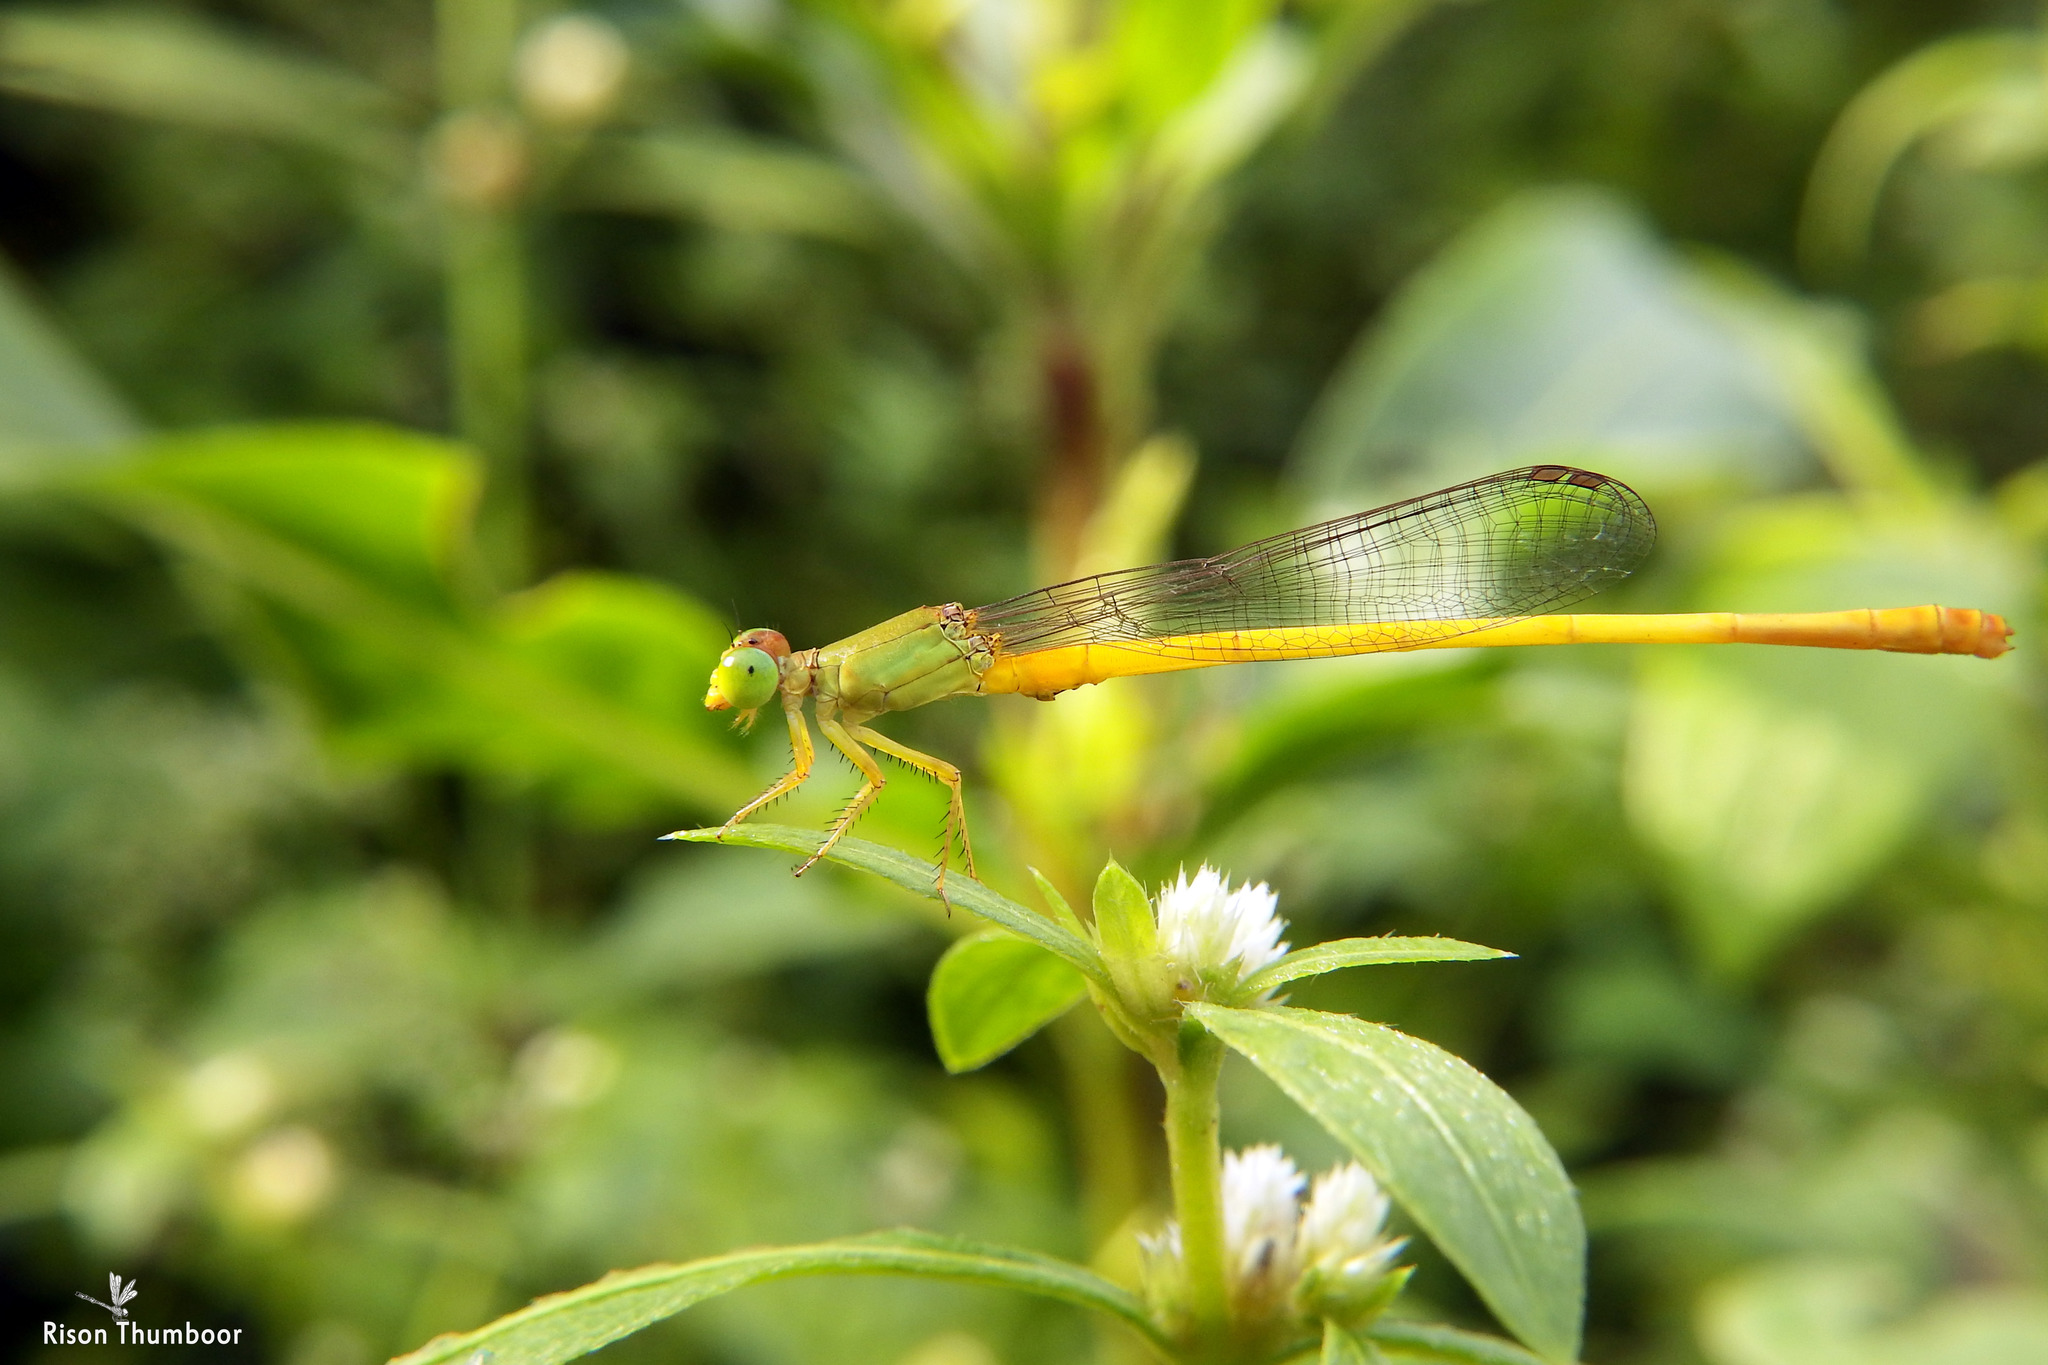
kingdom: Animalia
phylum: Arthropoda
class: Insecta
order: Odonata
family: Coenagrionidae
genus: Ceriagrion
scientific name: Ceriagrion coromandelianum
